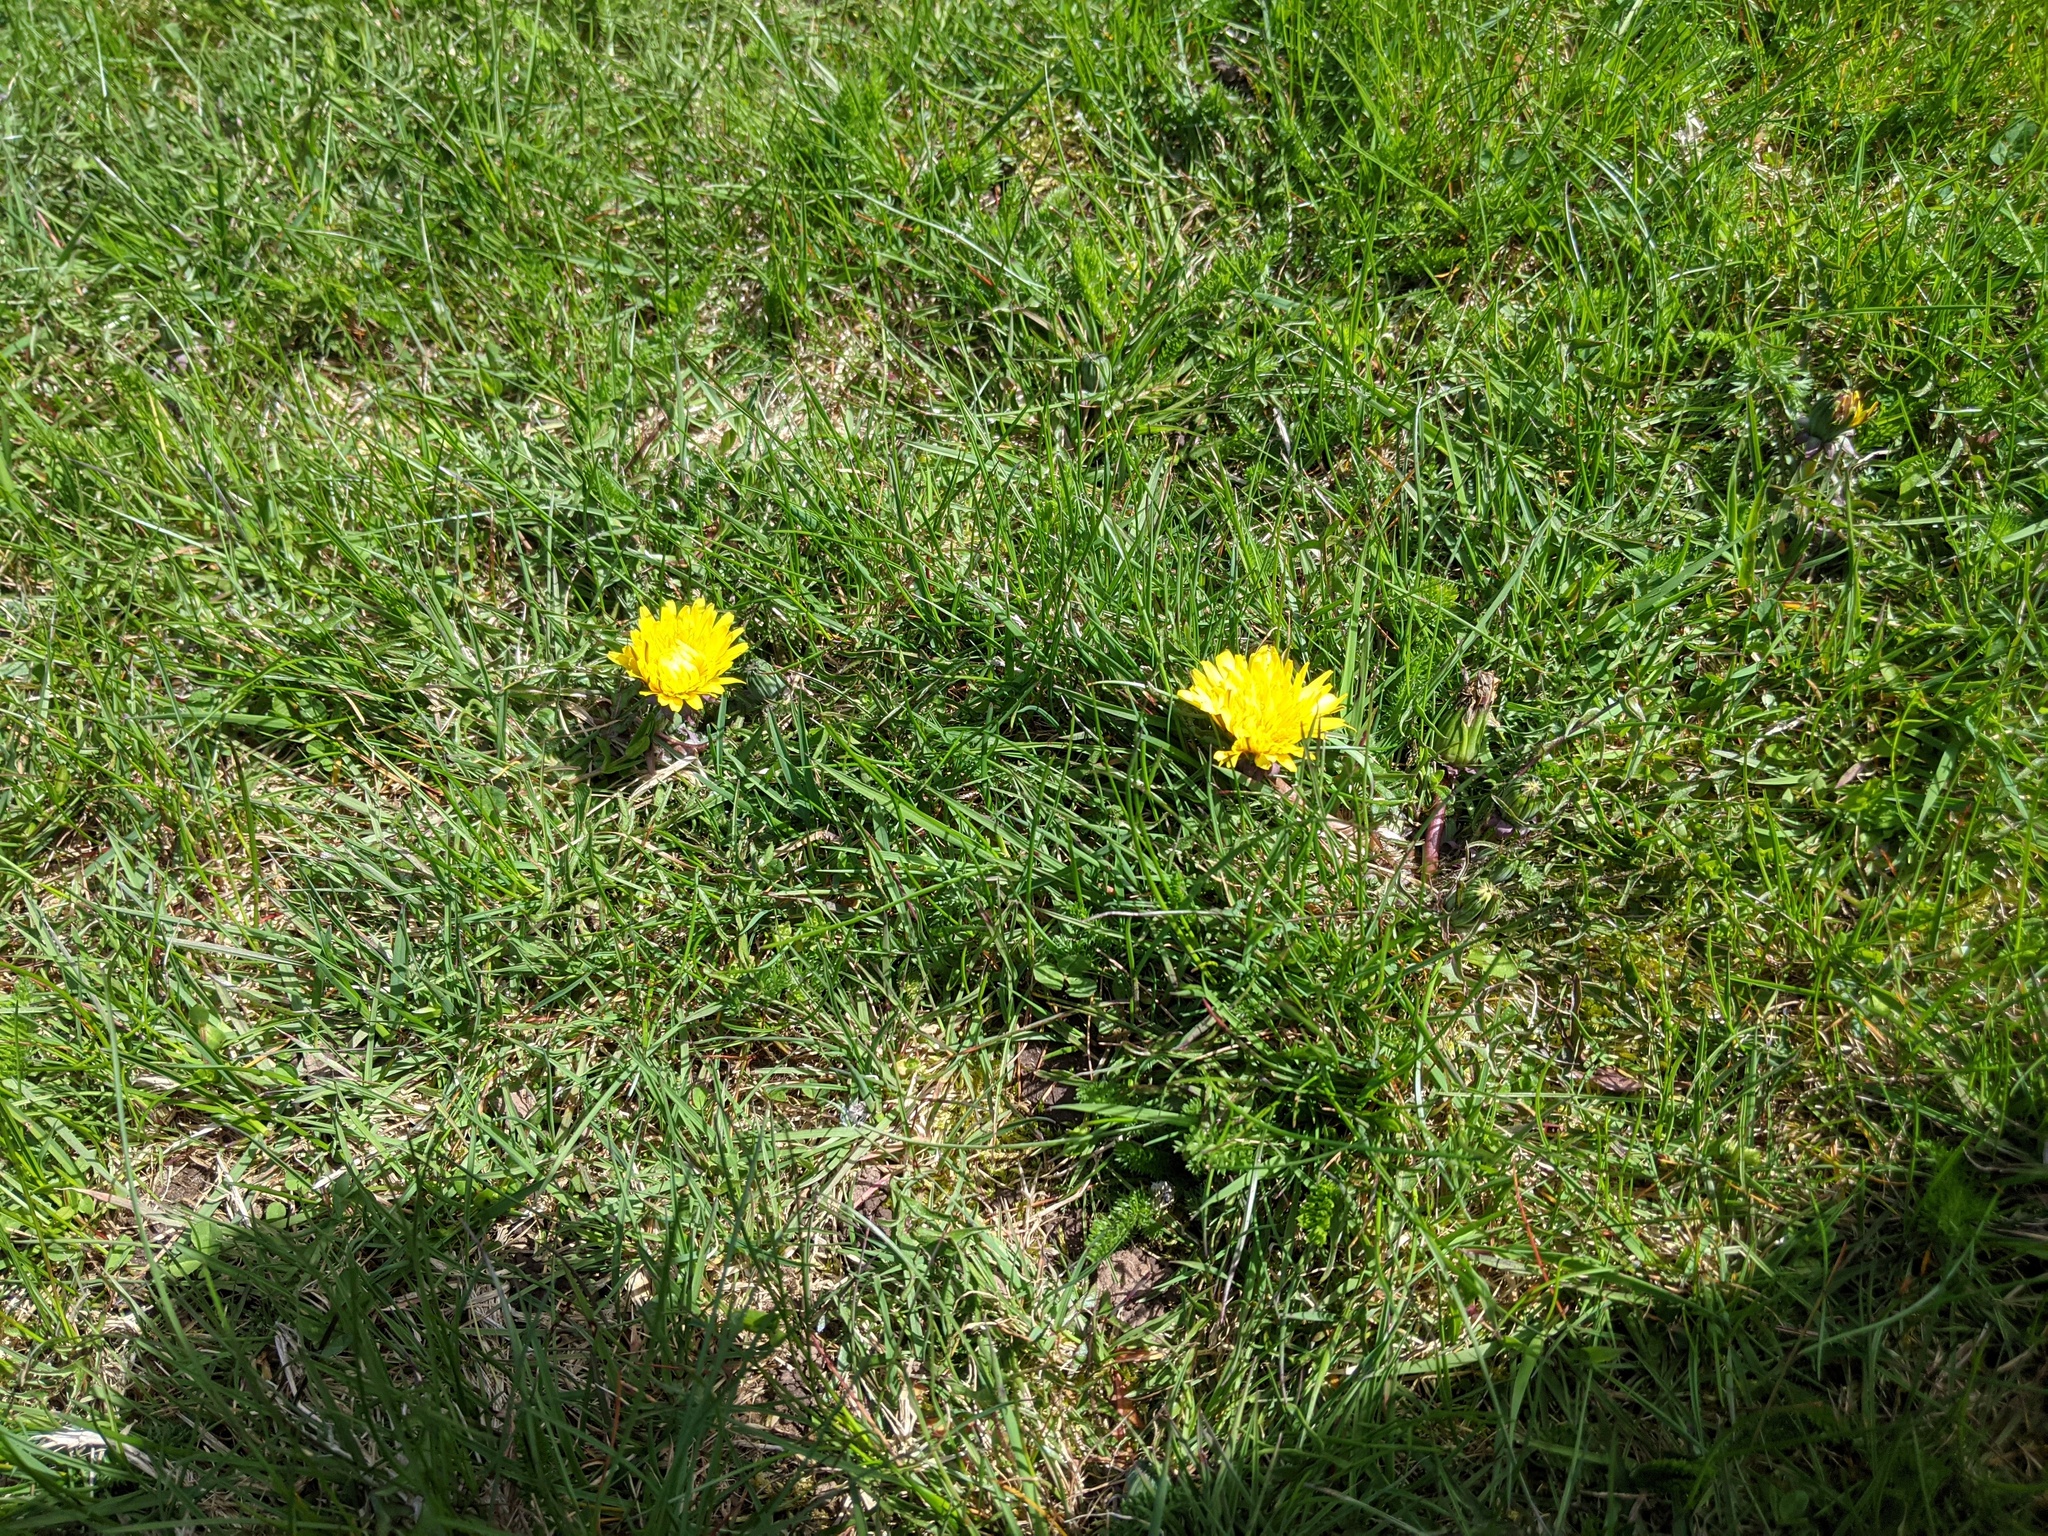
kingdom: Plantae
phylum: Tracheophyta
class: Magnoliopsida
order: Asterales
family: Asteraceae
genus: Taraxacum
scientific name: Taraxacum officinale
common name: Common dandelion
